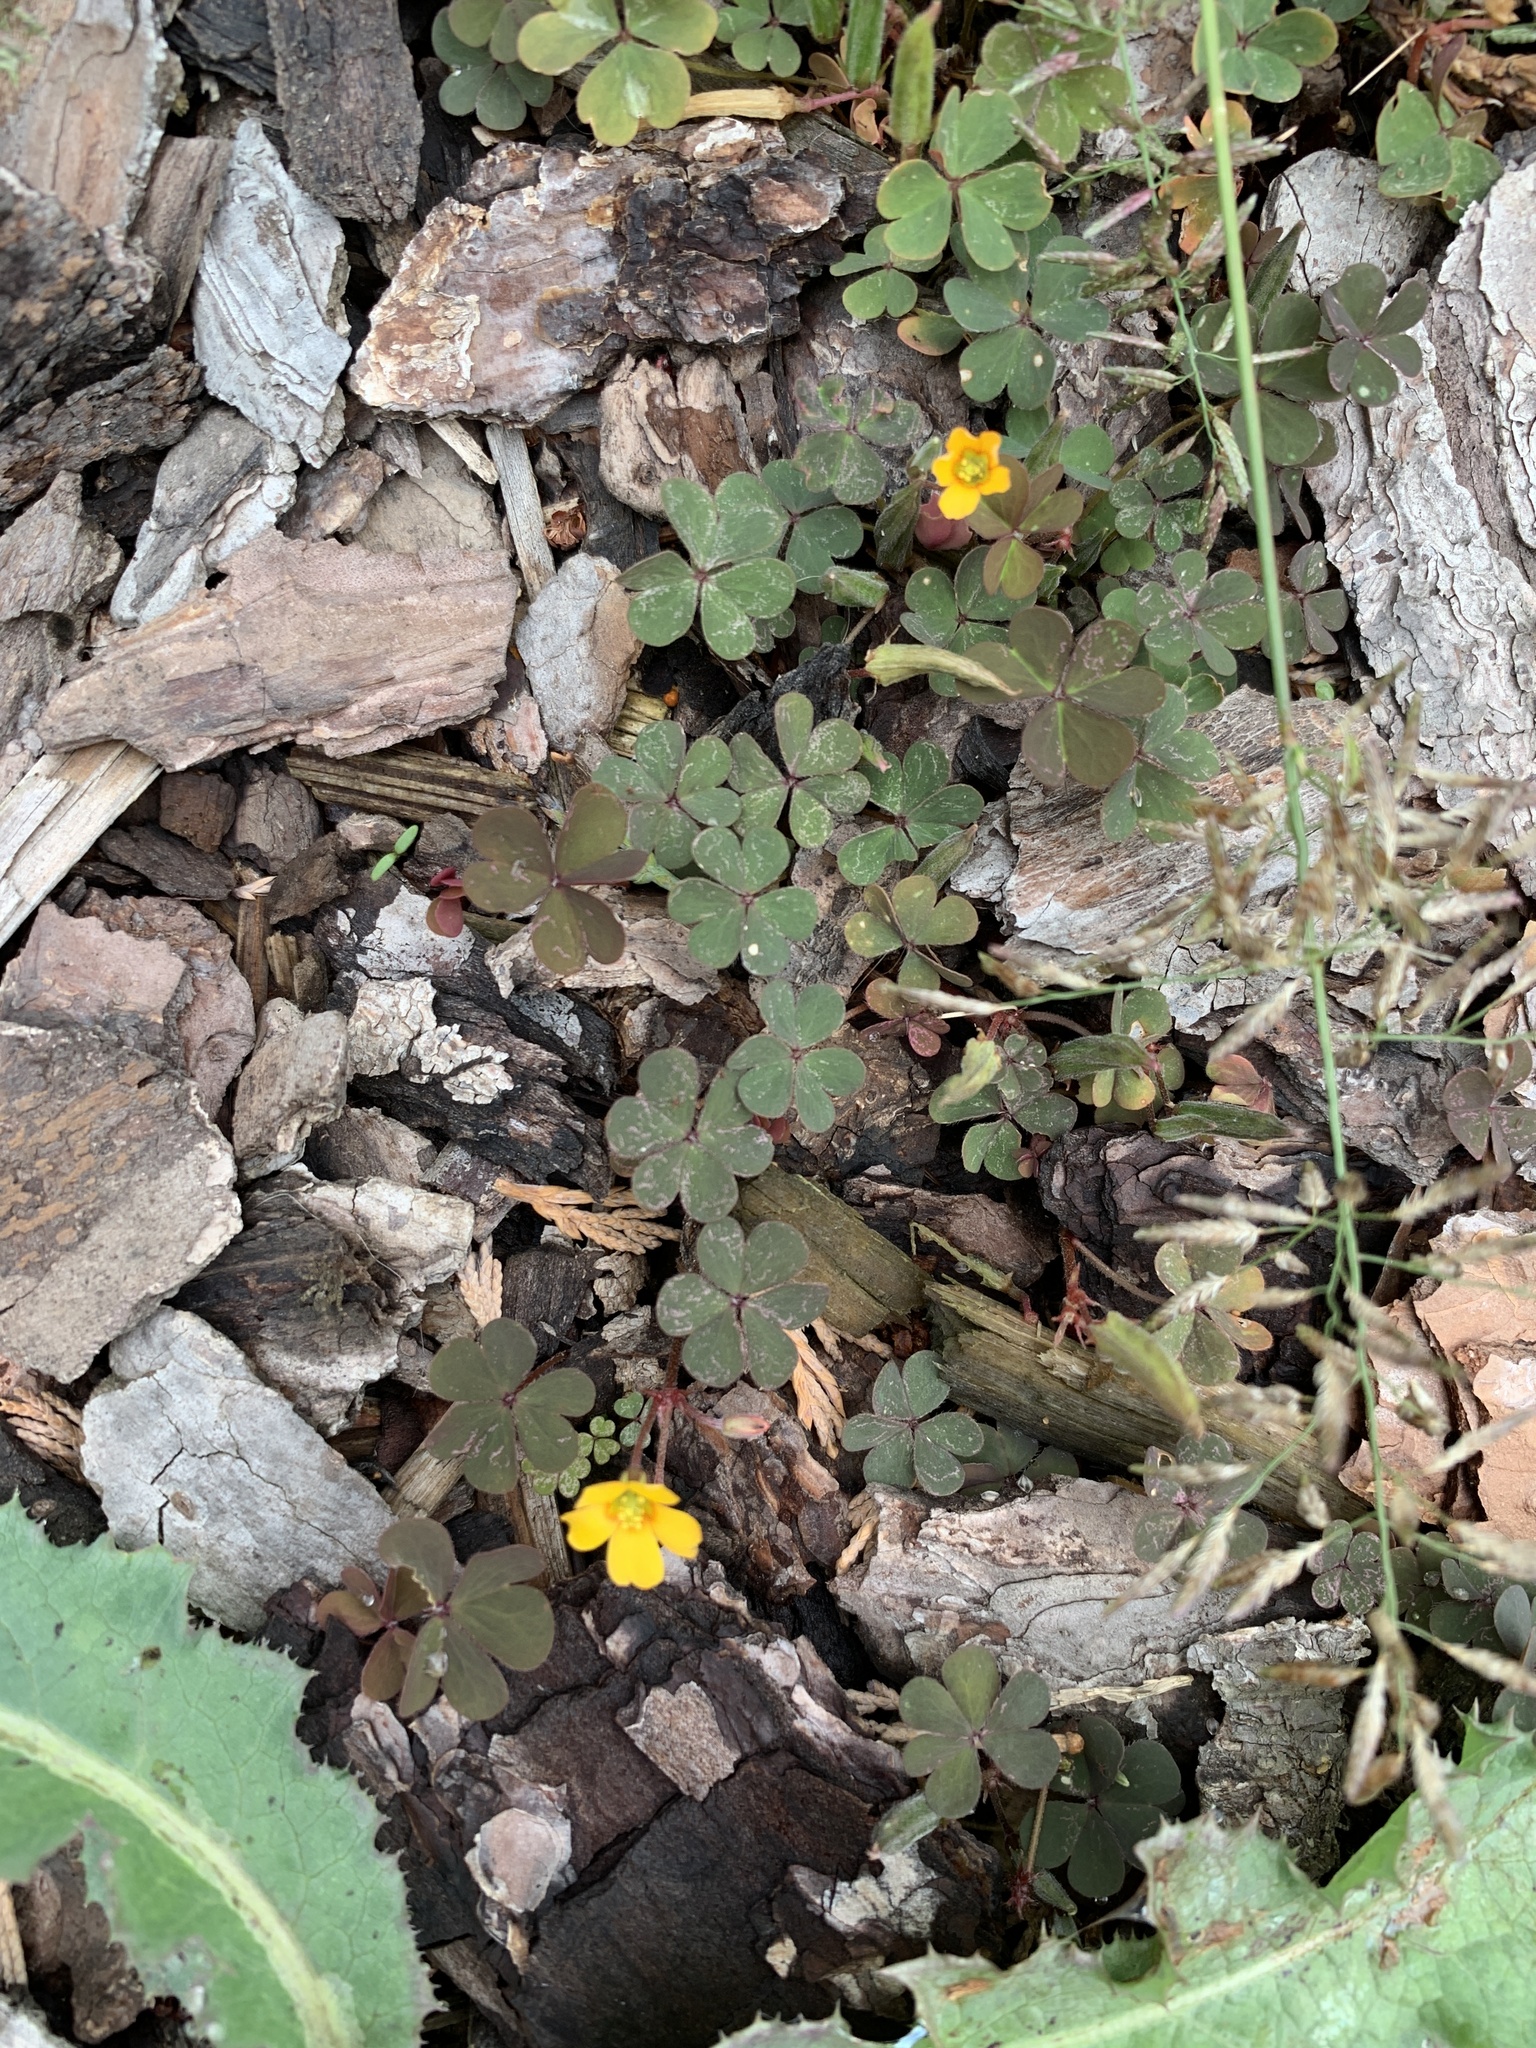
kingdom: Plantae
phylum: Tracheophyta
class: Magnoliopsida
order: Oxalidales
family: Oxalidaceae
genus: Oxalis
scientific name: Oxalis corniculata
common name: Procumbent yellow-sorrel
